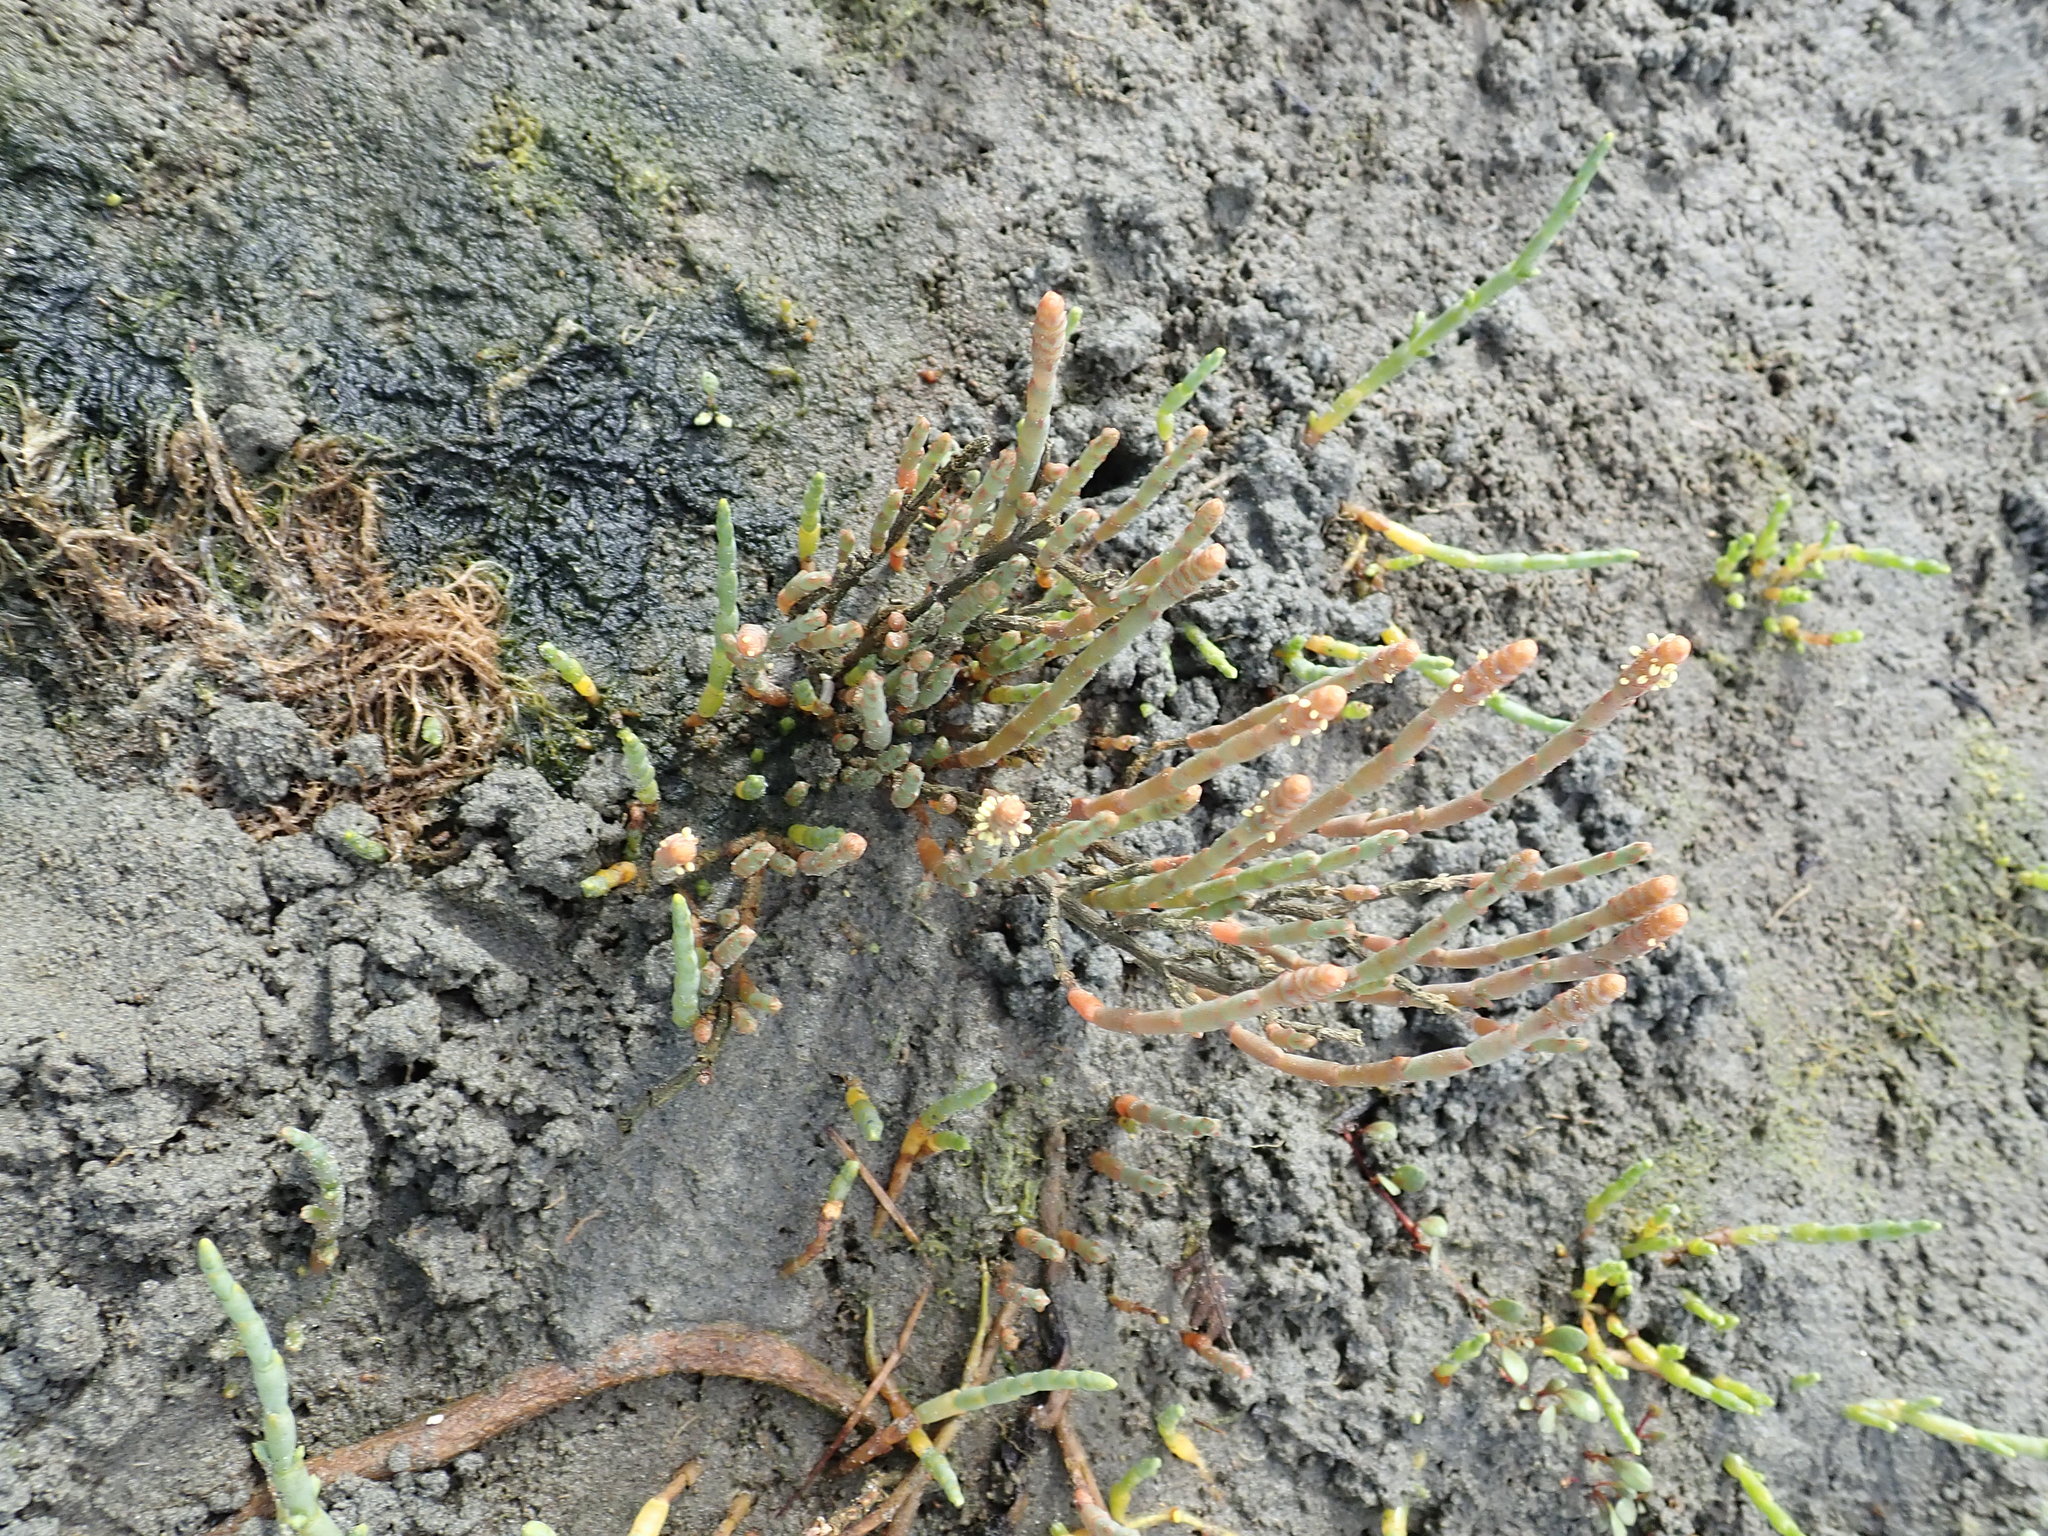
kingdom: Plantae
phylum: Tracheophyta
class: Magnoliopsida
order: Caryophyllales
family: Amaranthaceae
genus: Salicornia
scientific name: Salicornia quinqueflora
